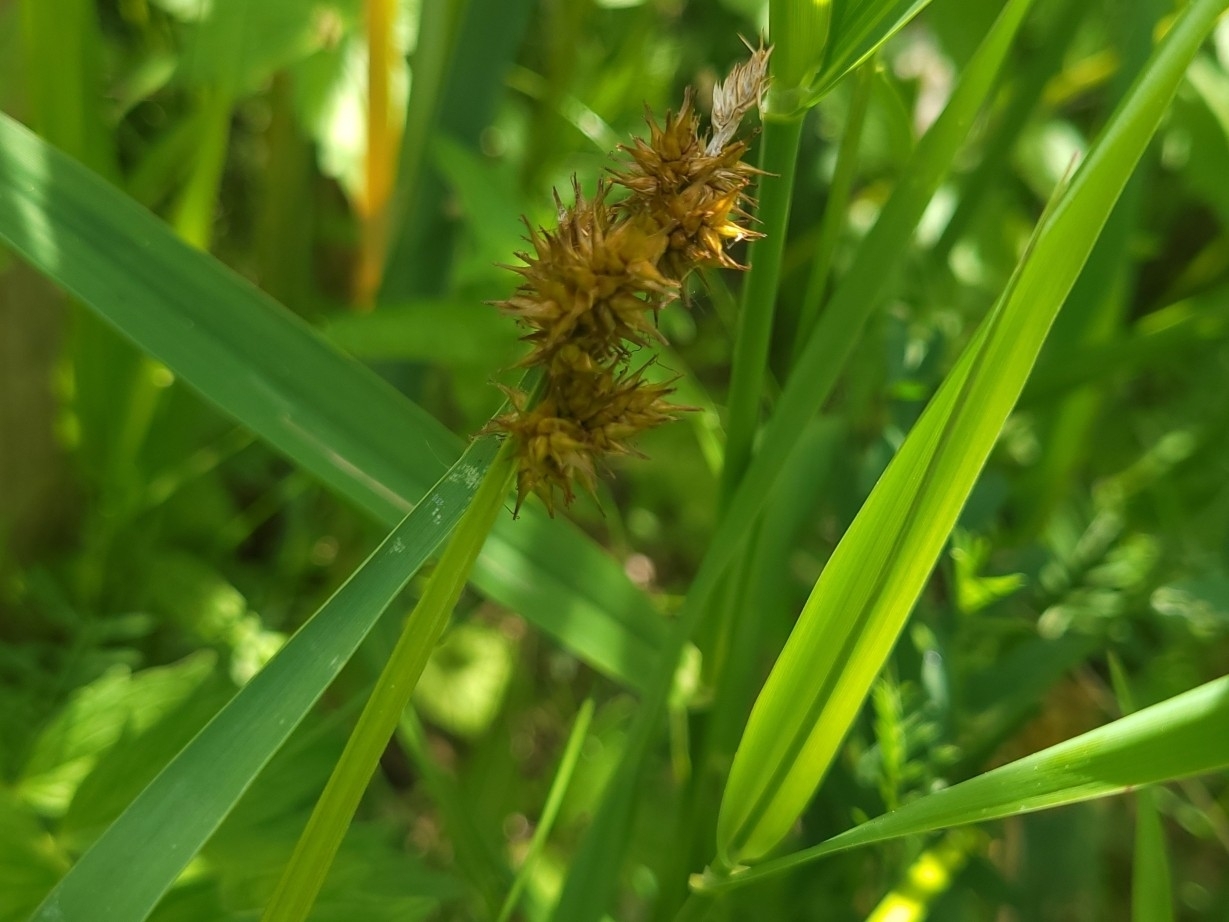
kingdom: Plantae
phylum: Tracheophyta
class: Liliopsida
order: Poales
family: Cyperaceae
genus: Carex
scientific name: Carex stipata
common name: Awl-fruited sedge
